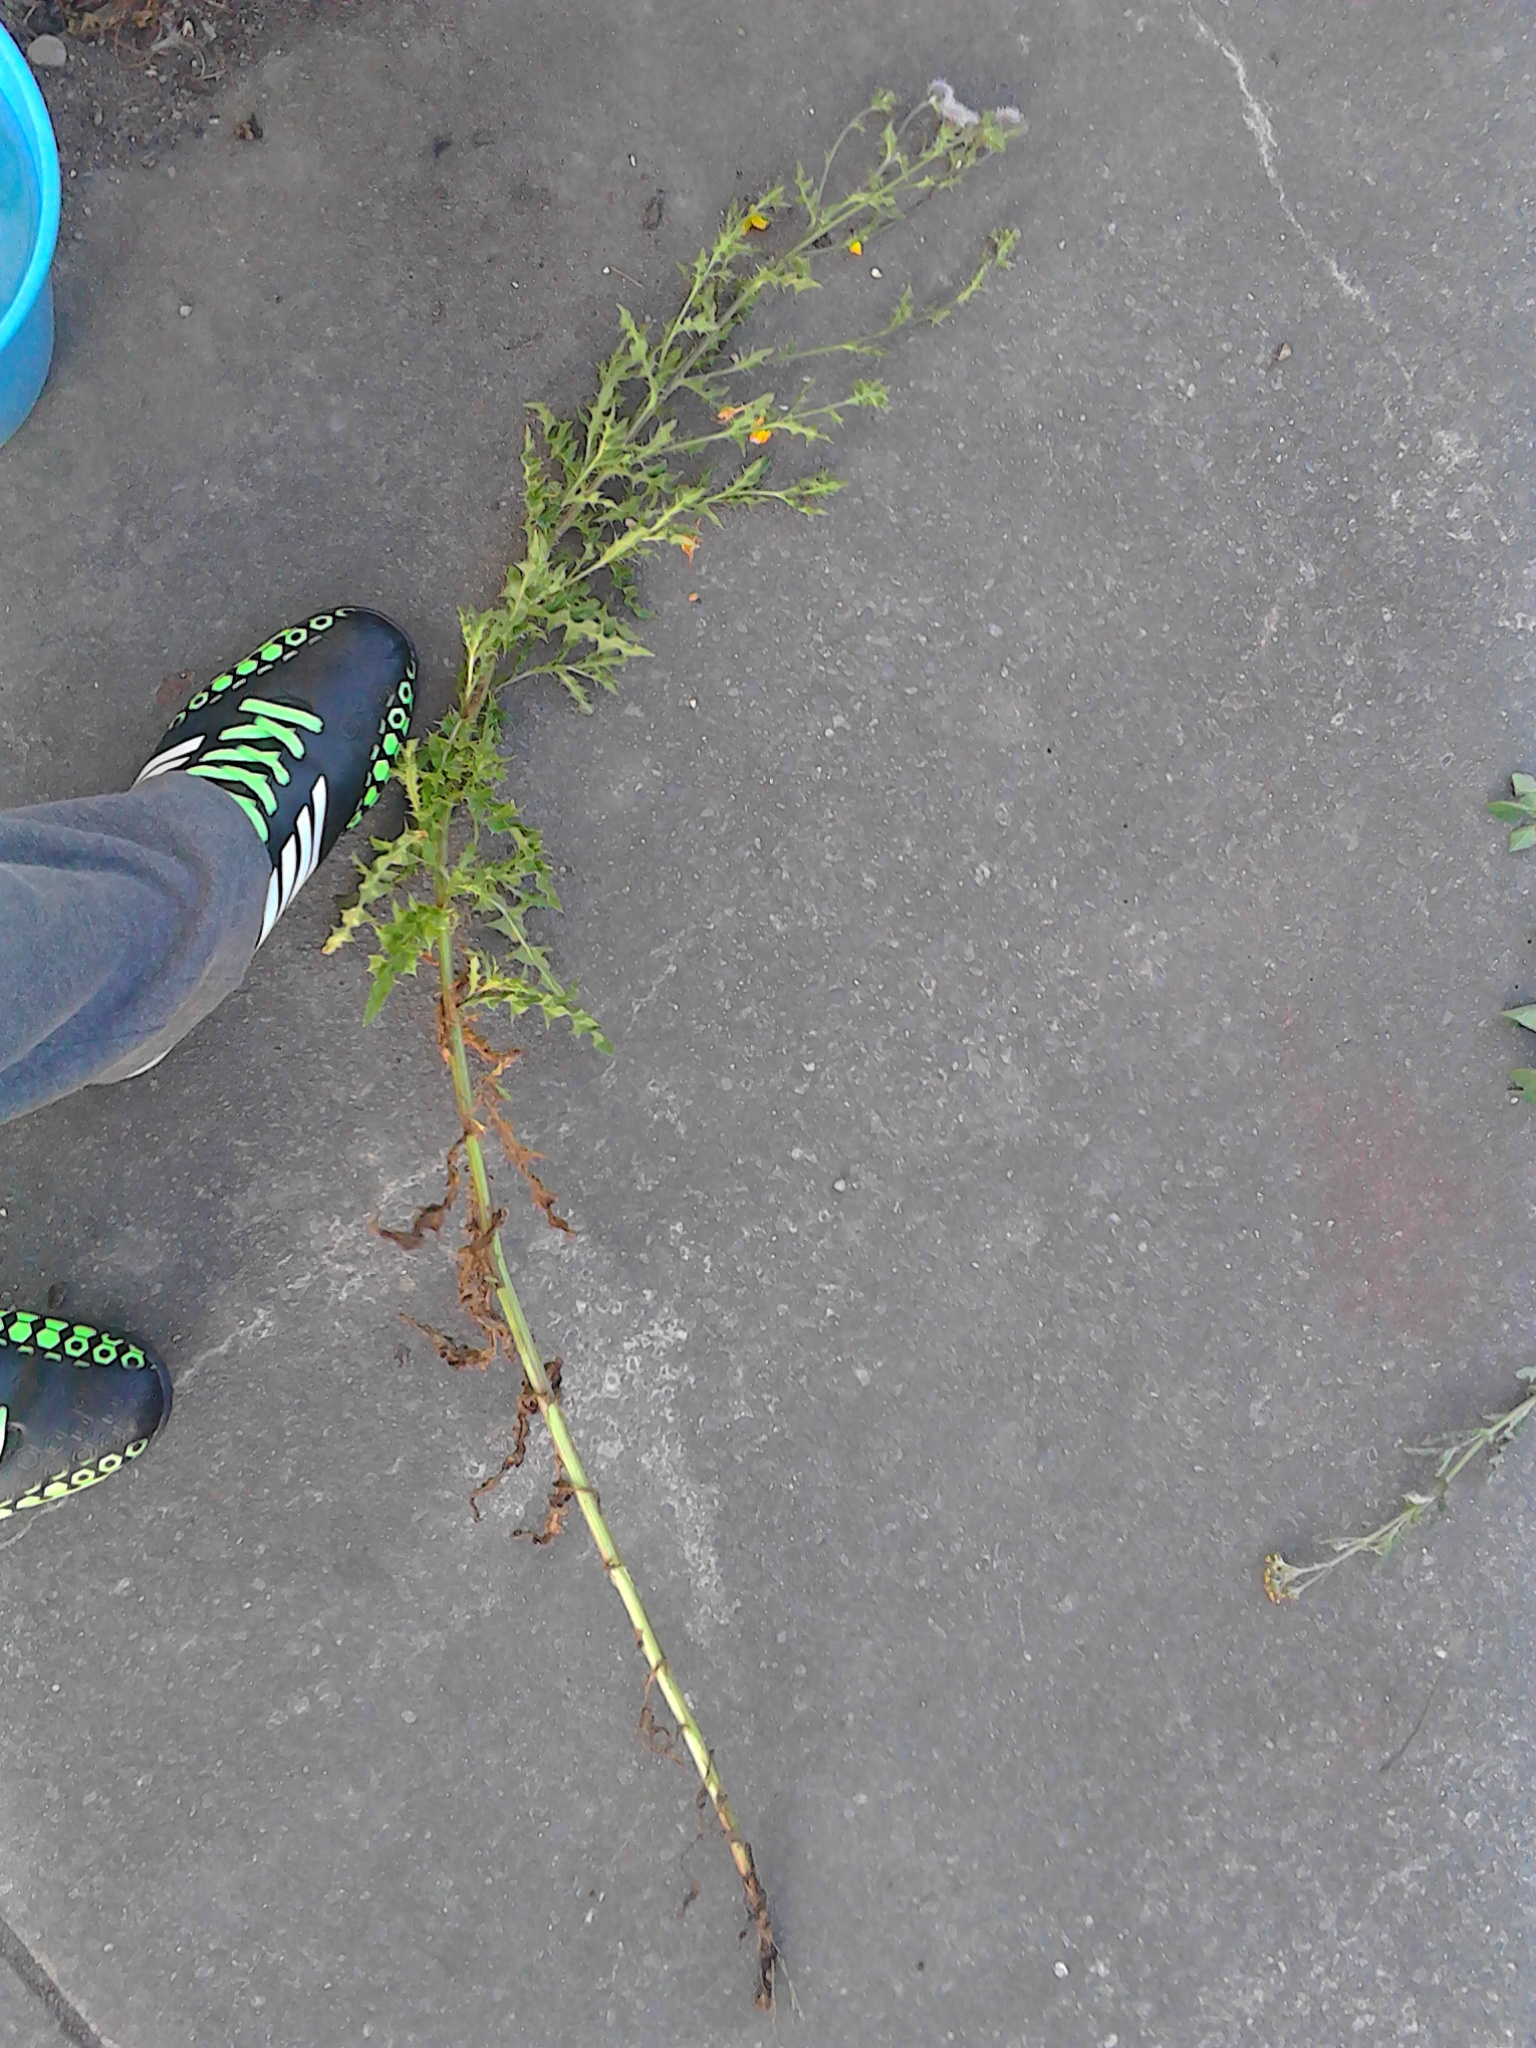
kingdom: Plantae
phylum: Tracheophyta
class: Magnoliopsida
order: Asterales
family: Asteraceae
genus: Cirsium
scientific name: Cirsium arvense
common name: Creeping thistle
